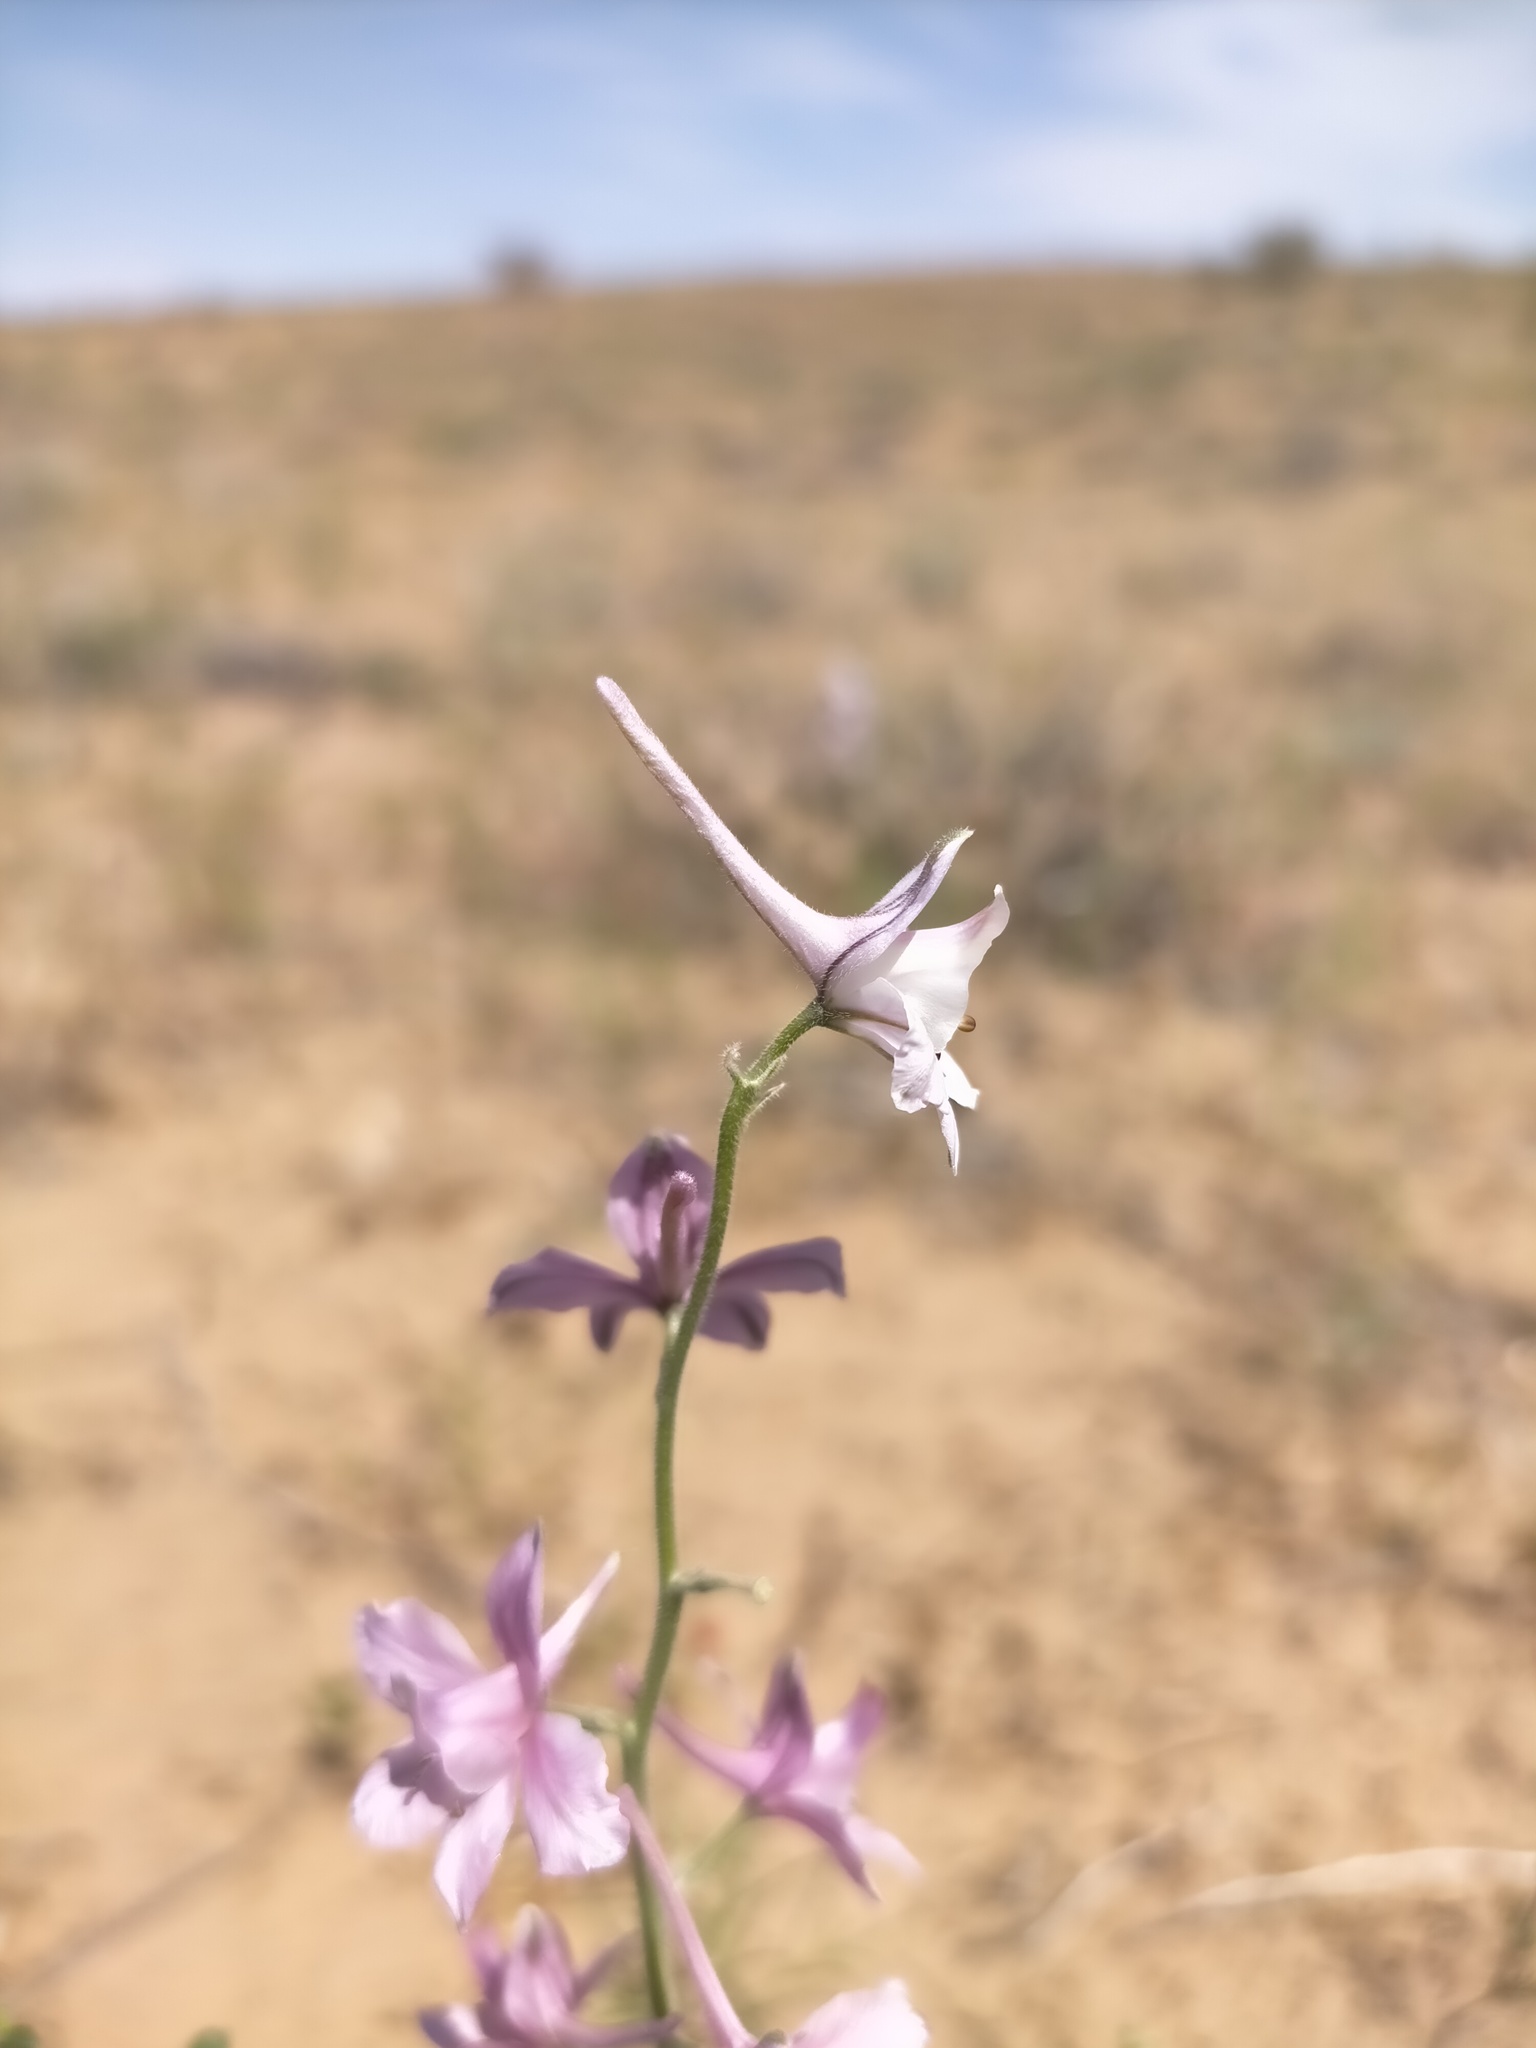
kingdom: Plantae
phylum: Tracheophyta
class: Magnoliopsida
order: Ranunculales
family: Ranunculaceae
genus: Delphinium
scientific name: Delphinium camptocarpum
